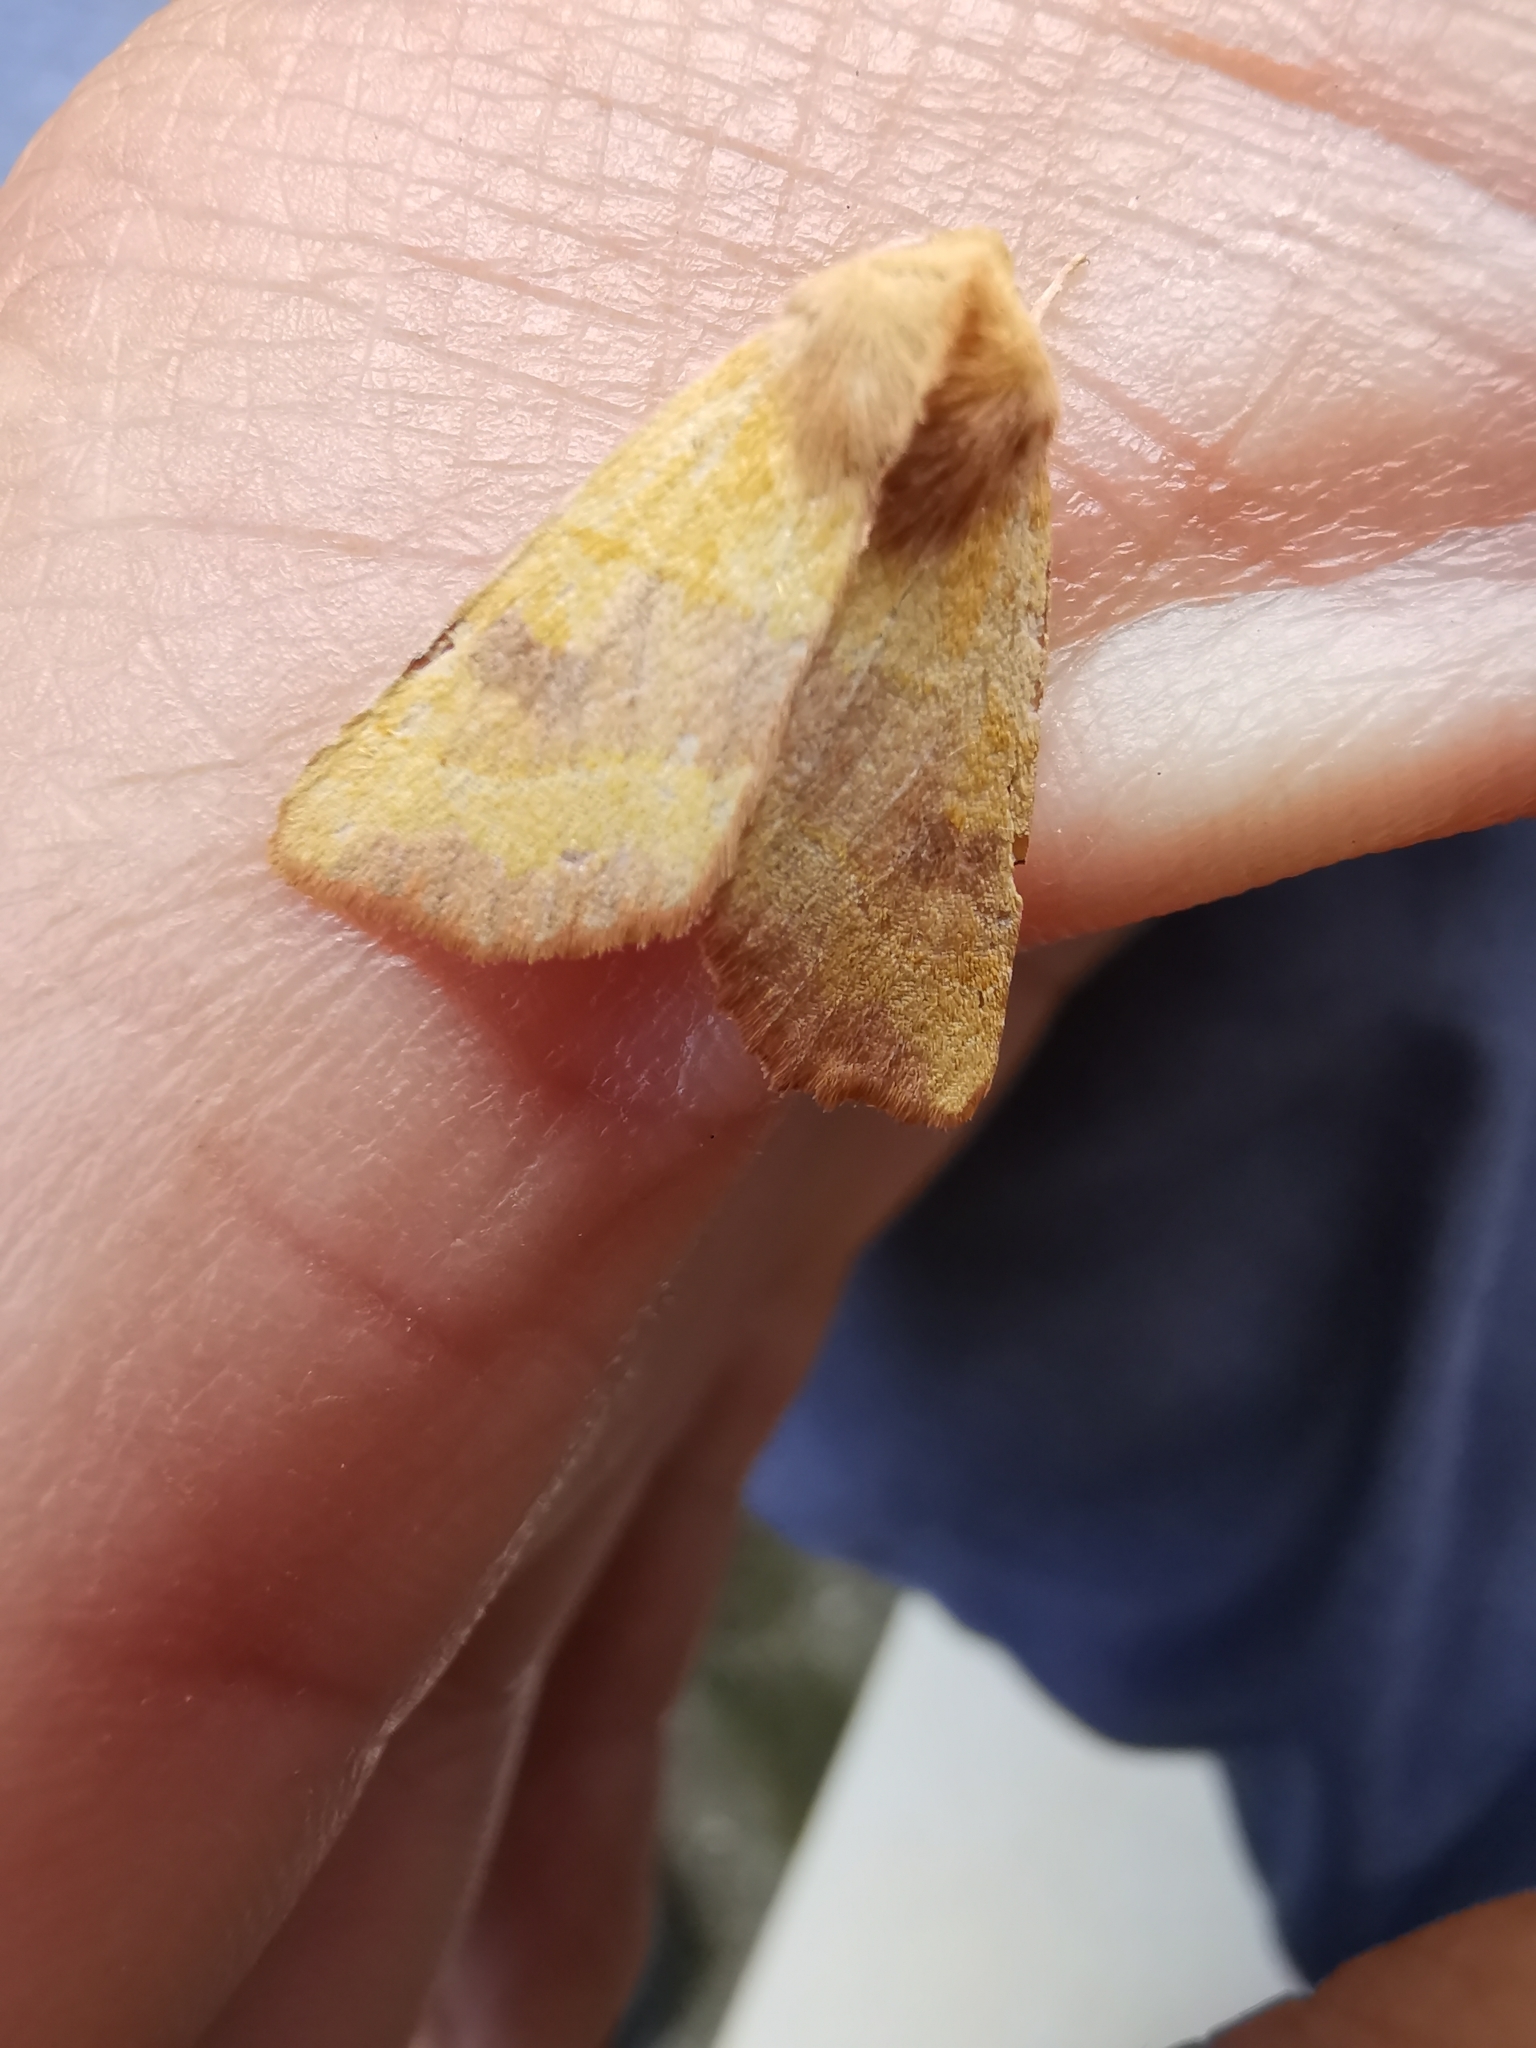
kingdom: Animalia
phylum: Arthropoda
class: Insecta
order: Lepidoptera
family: Noctuidae
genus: Atethmia
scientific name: Atethmia centrago
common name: Centre-barred sallow
